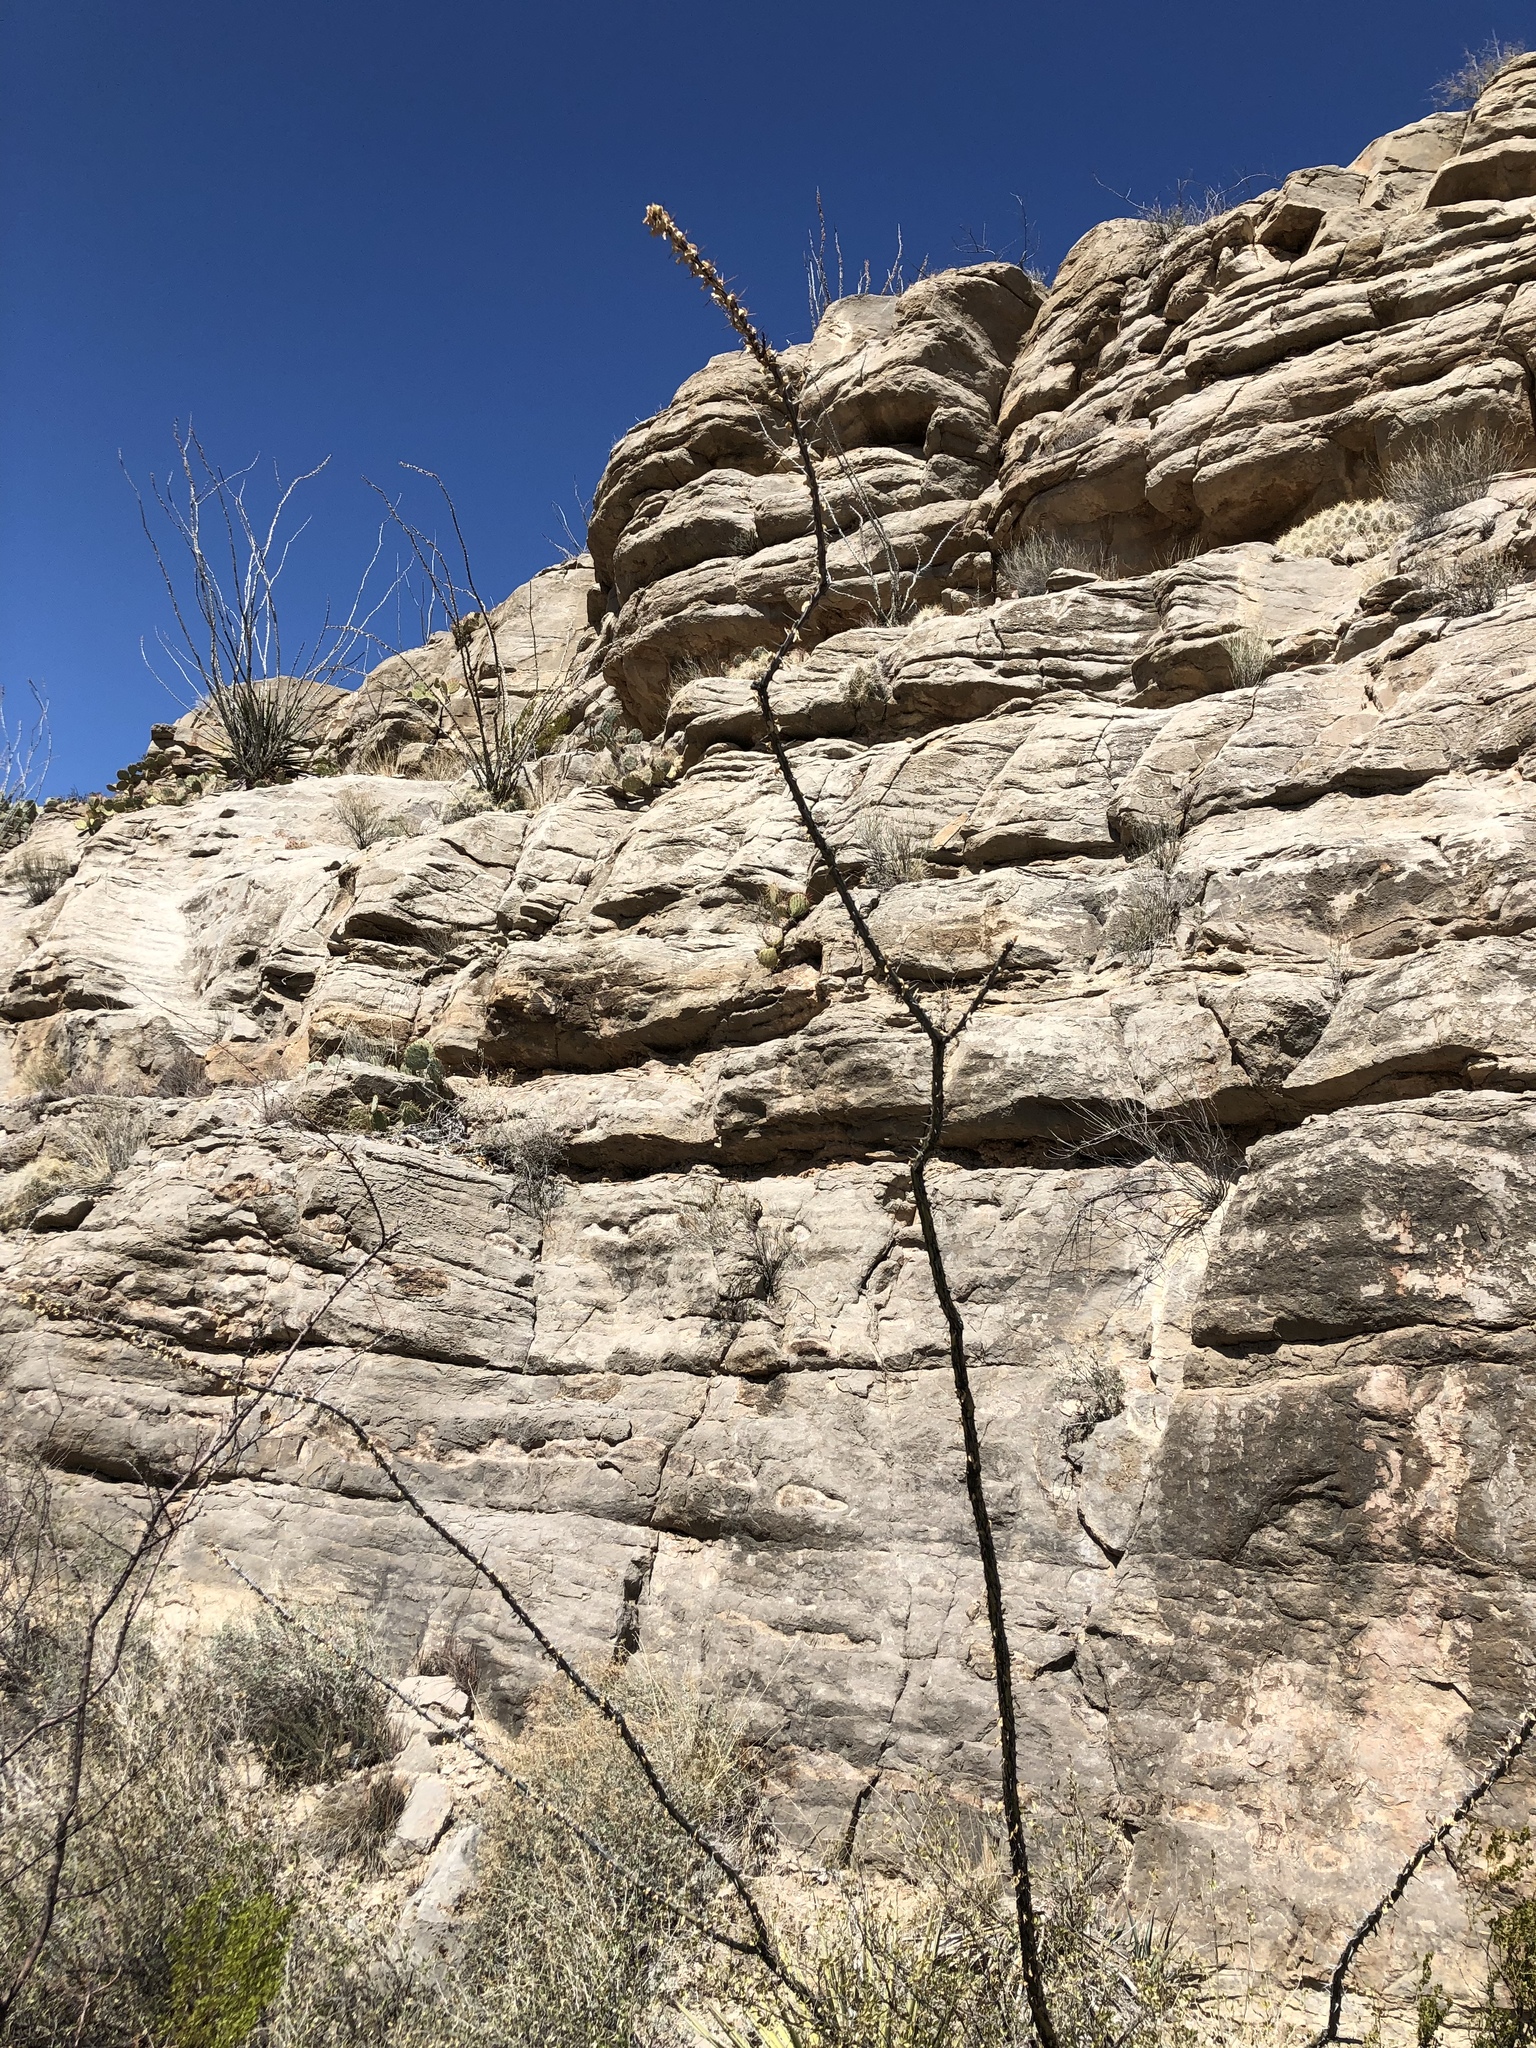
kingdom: Plantae
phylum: Tracheophyta
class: Magnoliopsida
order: Ericales
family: Fouquieriaceae
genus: Fouquieria
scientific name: Fouquieria splendens
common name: Vine-cactus
